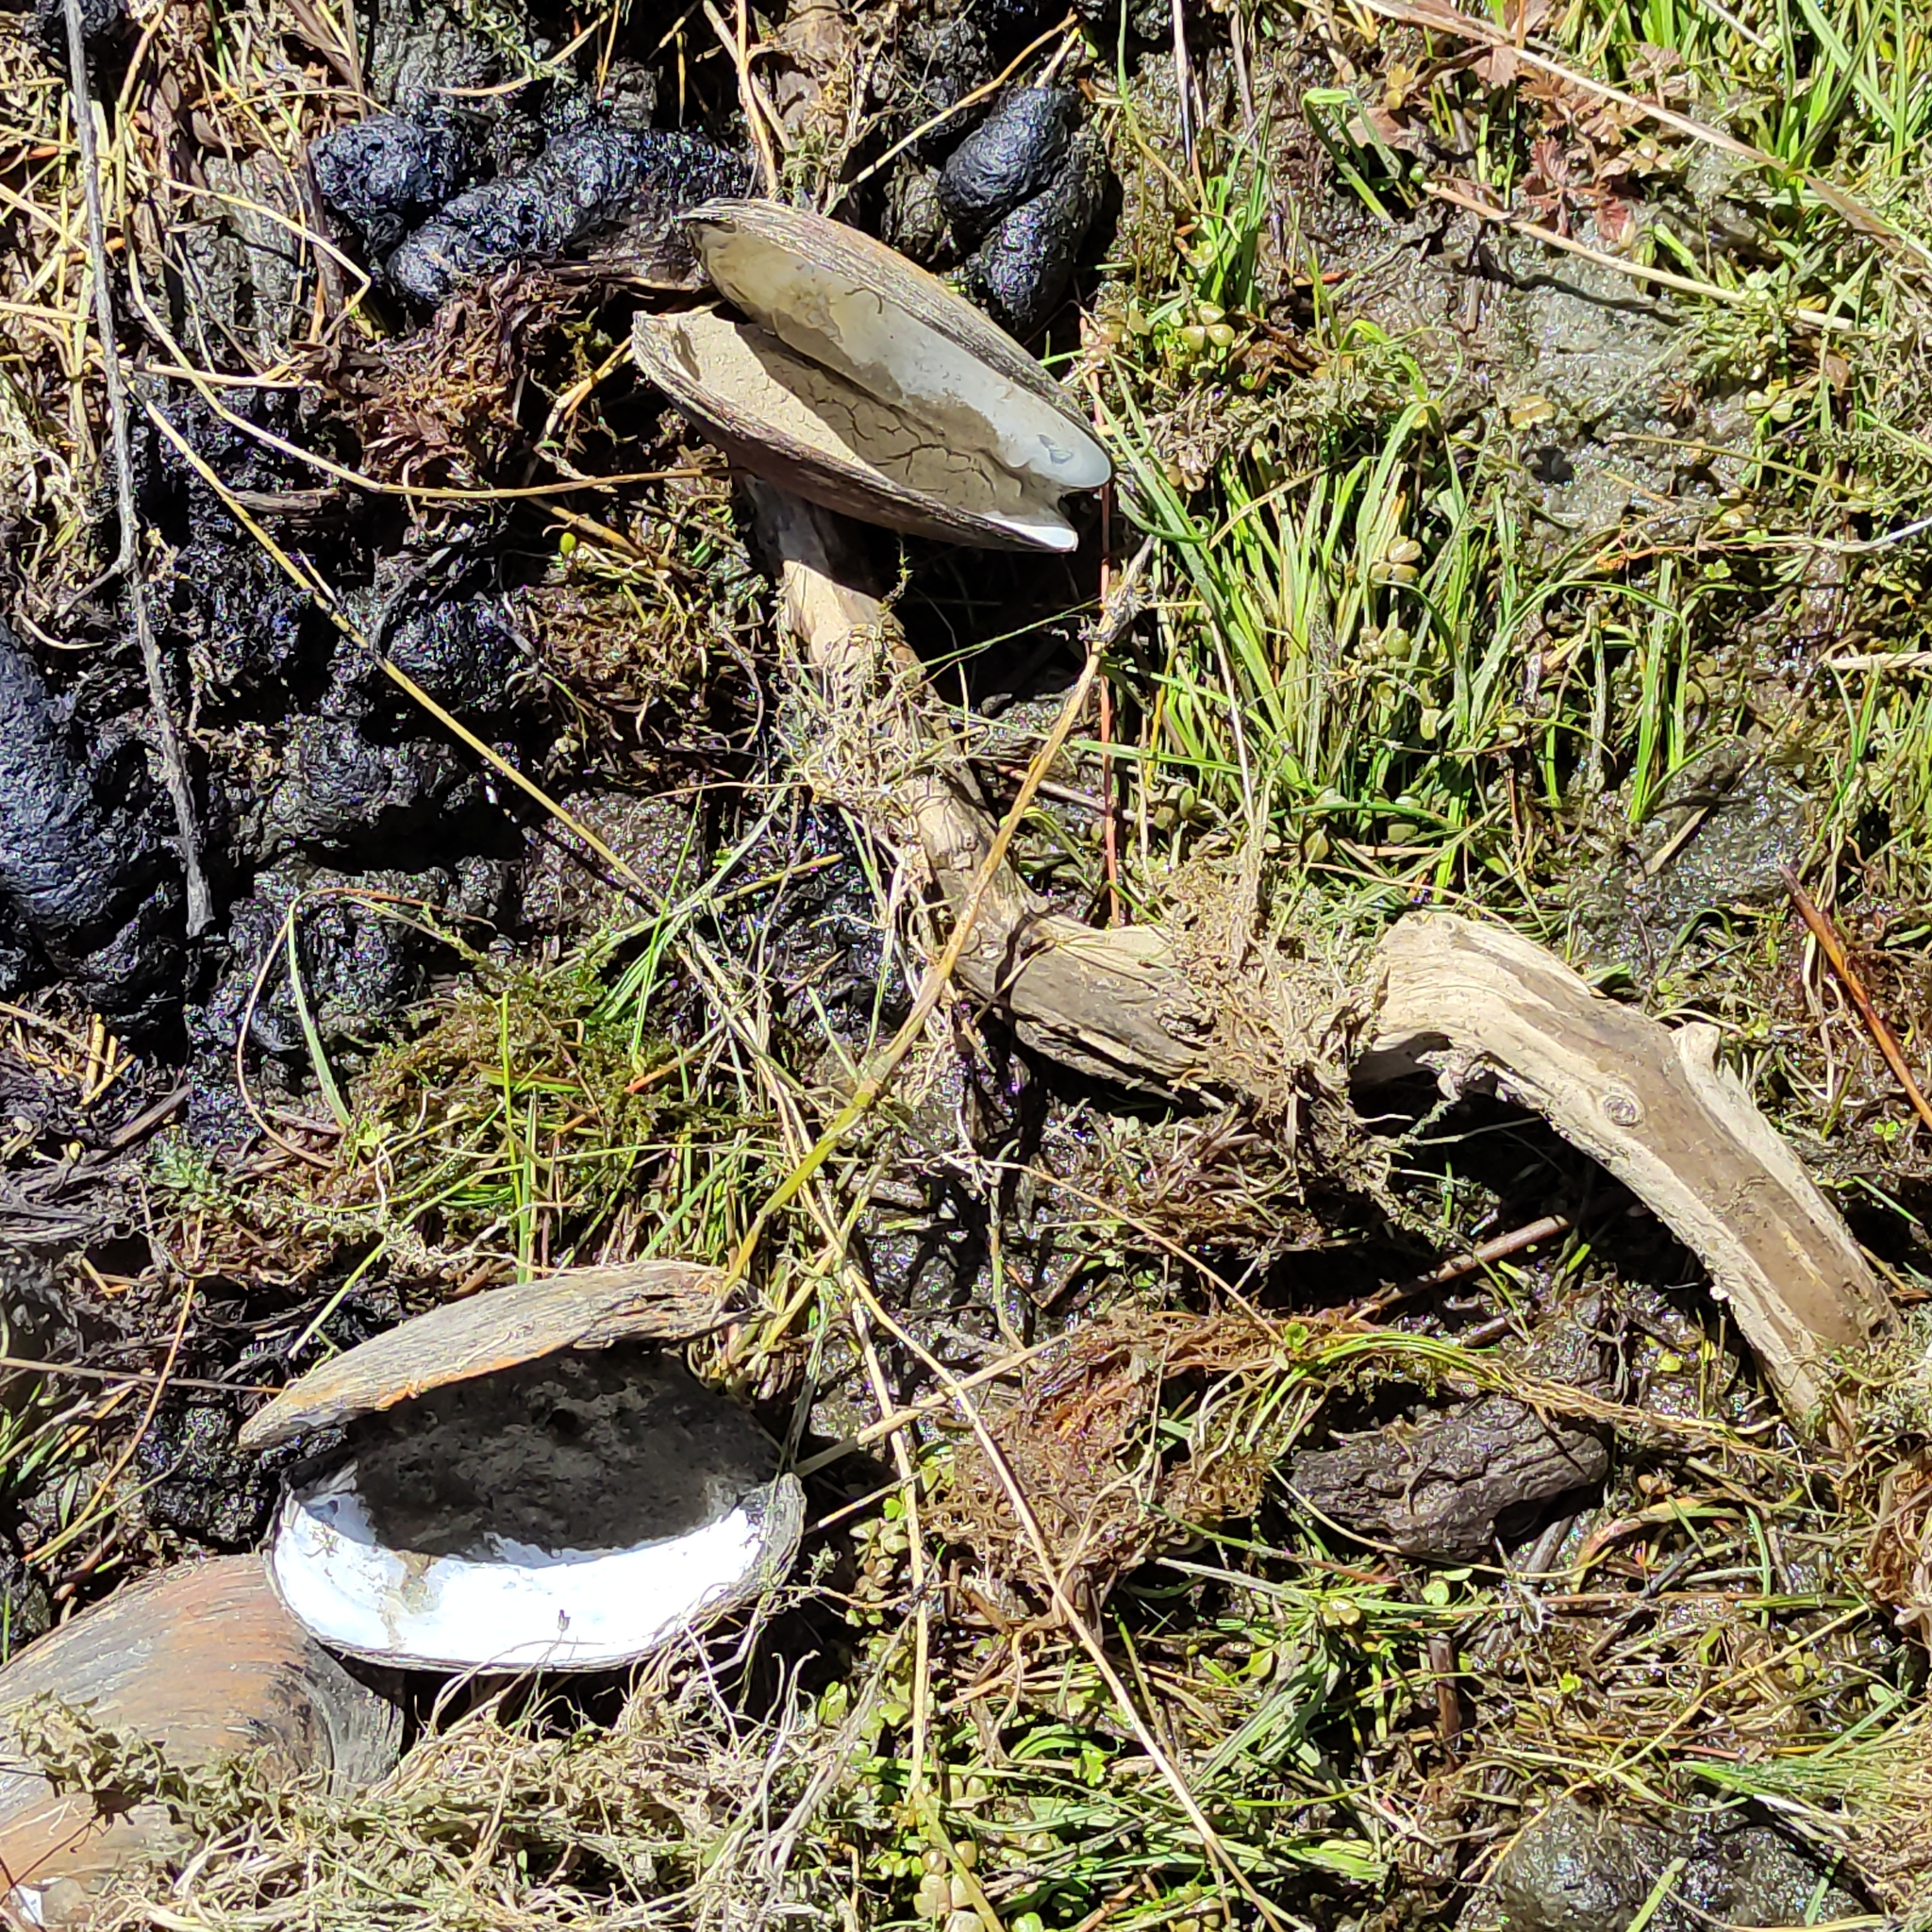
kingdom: Animalia
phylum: Mollusca
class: Bivalvia
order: Unionida
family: Hyriidae
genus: Echyridella
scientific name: Echyridella menziesii
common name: New zealand freshwater mussel
